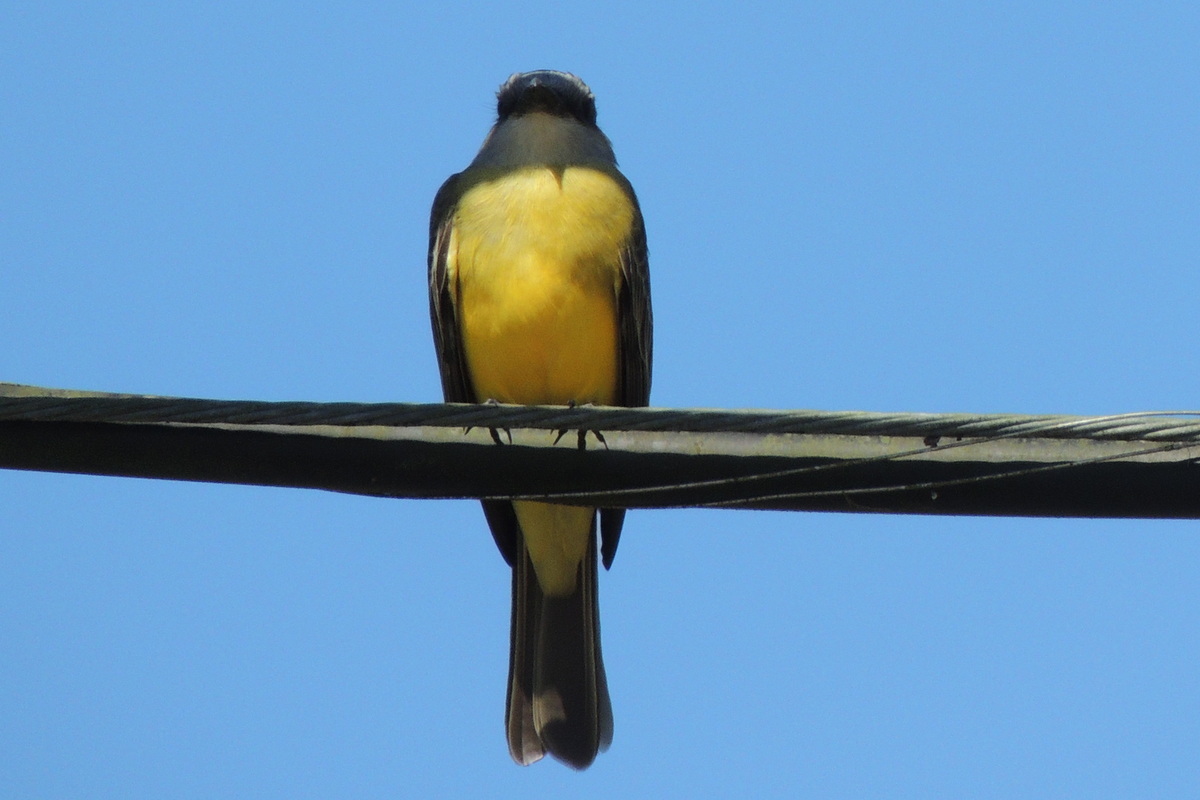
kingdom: Animalia
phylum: Chordata
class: Aves
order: Passeriformes
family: Tyrannidae
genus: Tyrannus
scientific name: Tyrannus melancholicus
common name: Tropical kingbird
